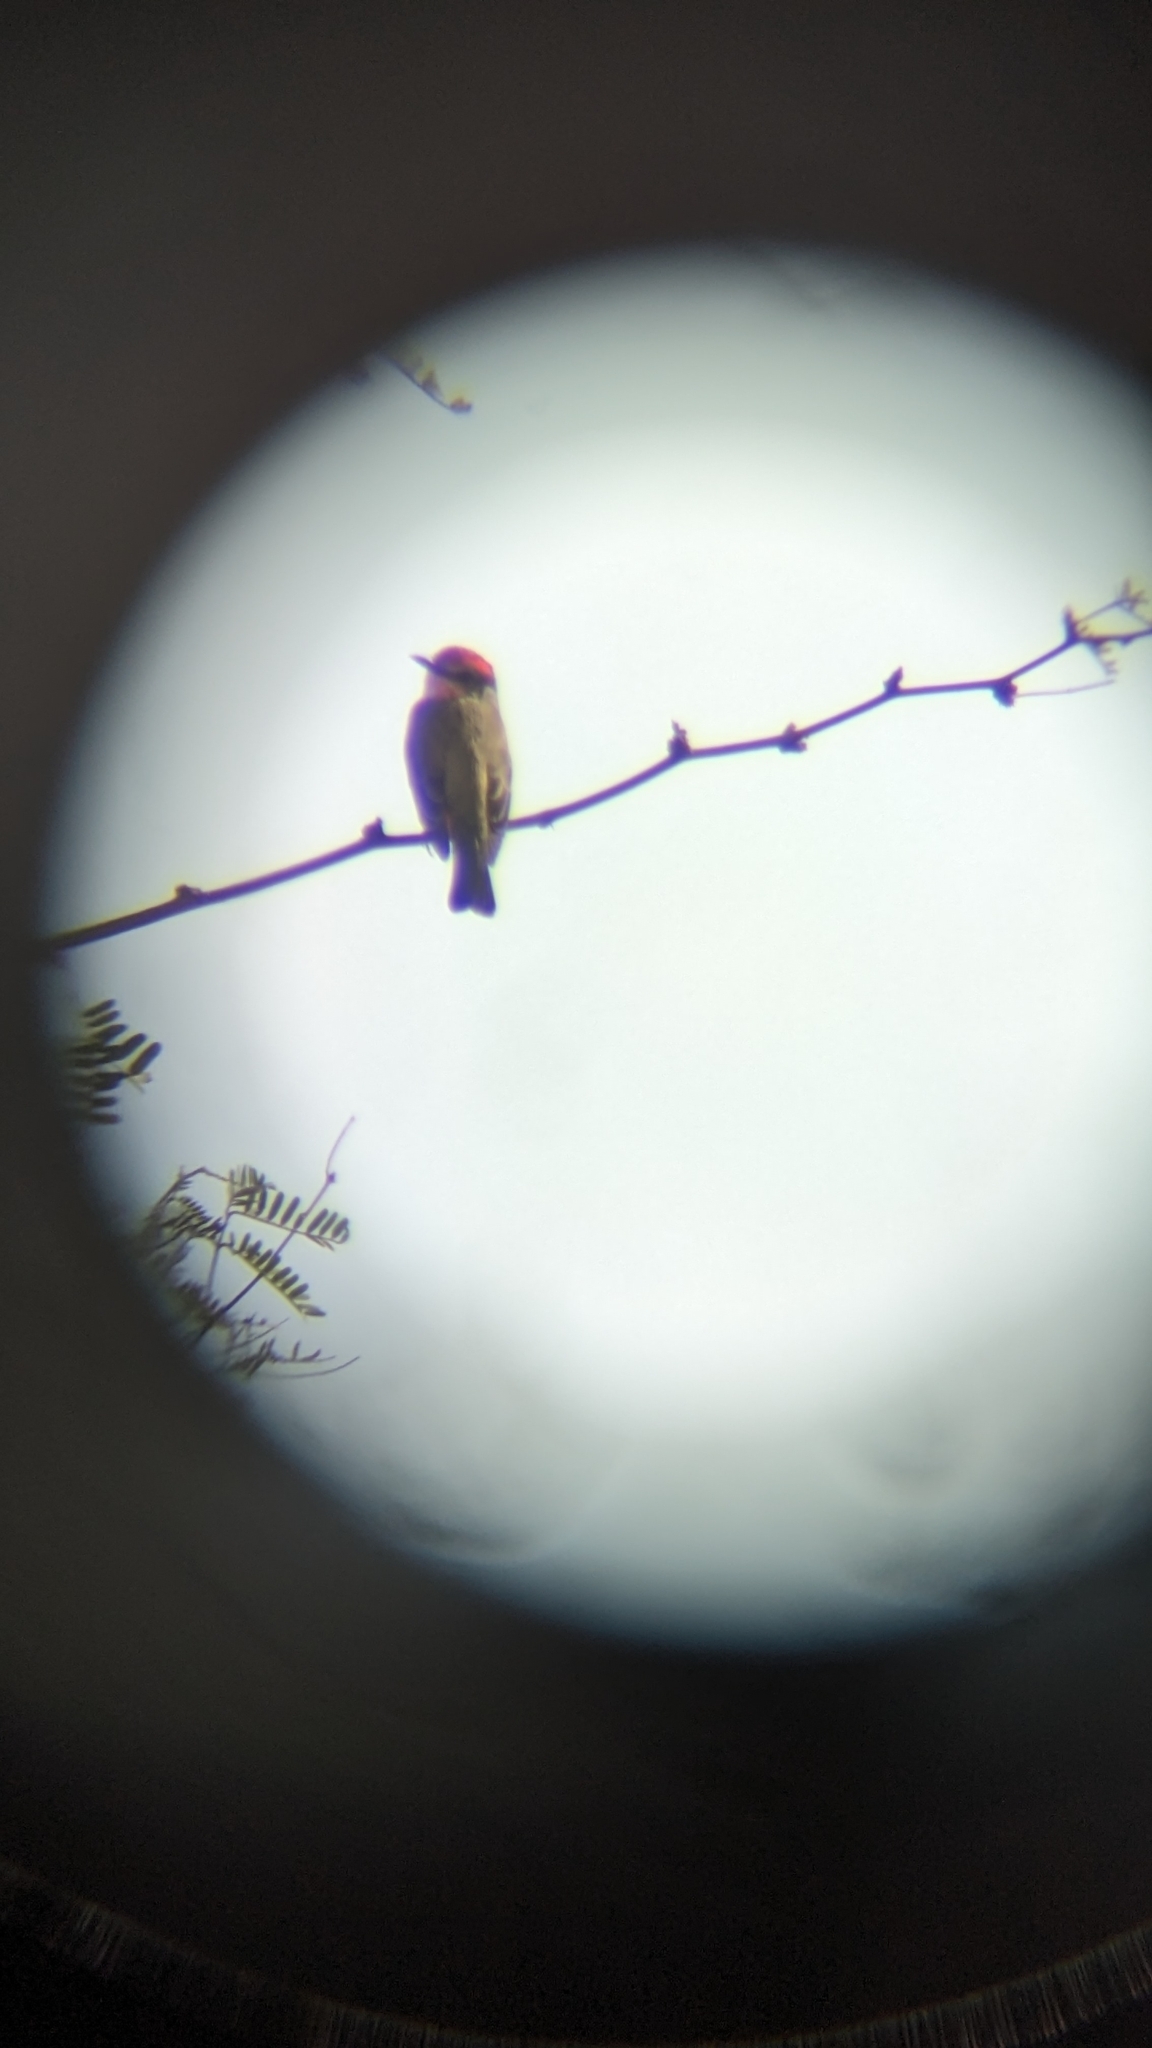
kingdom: Animalia
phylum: Chordata
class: Aves
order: Passeriformes
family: Tyrannidae
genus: Pyrocephalus
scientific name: Pyrocephalus rubinus
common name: Vermilion flycatcher
